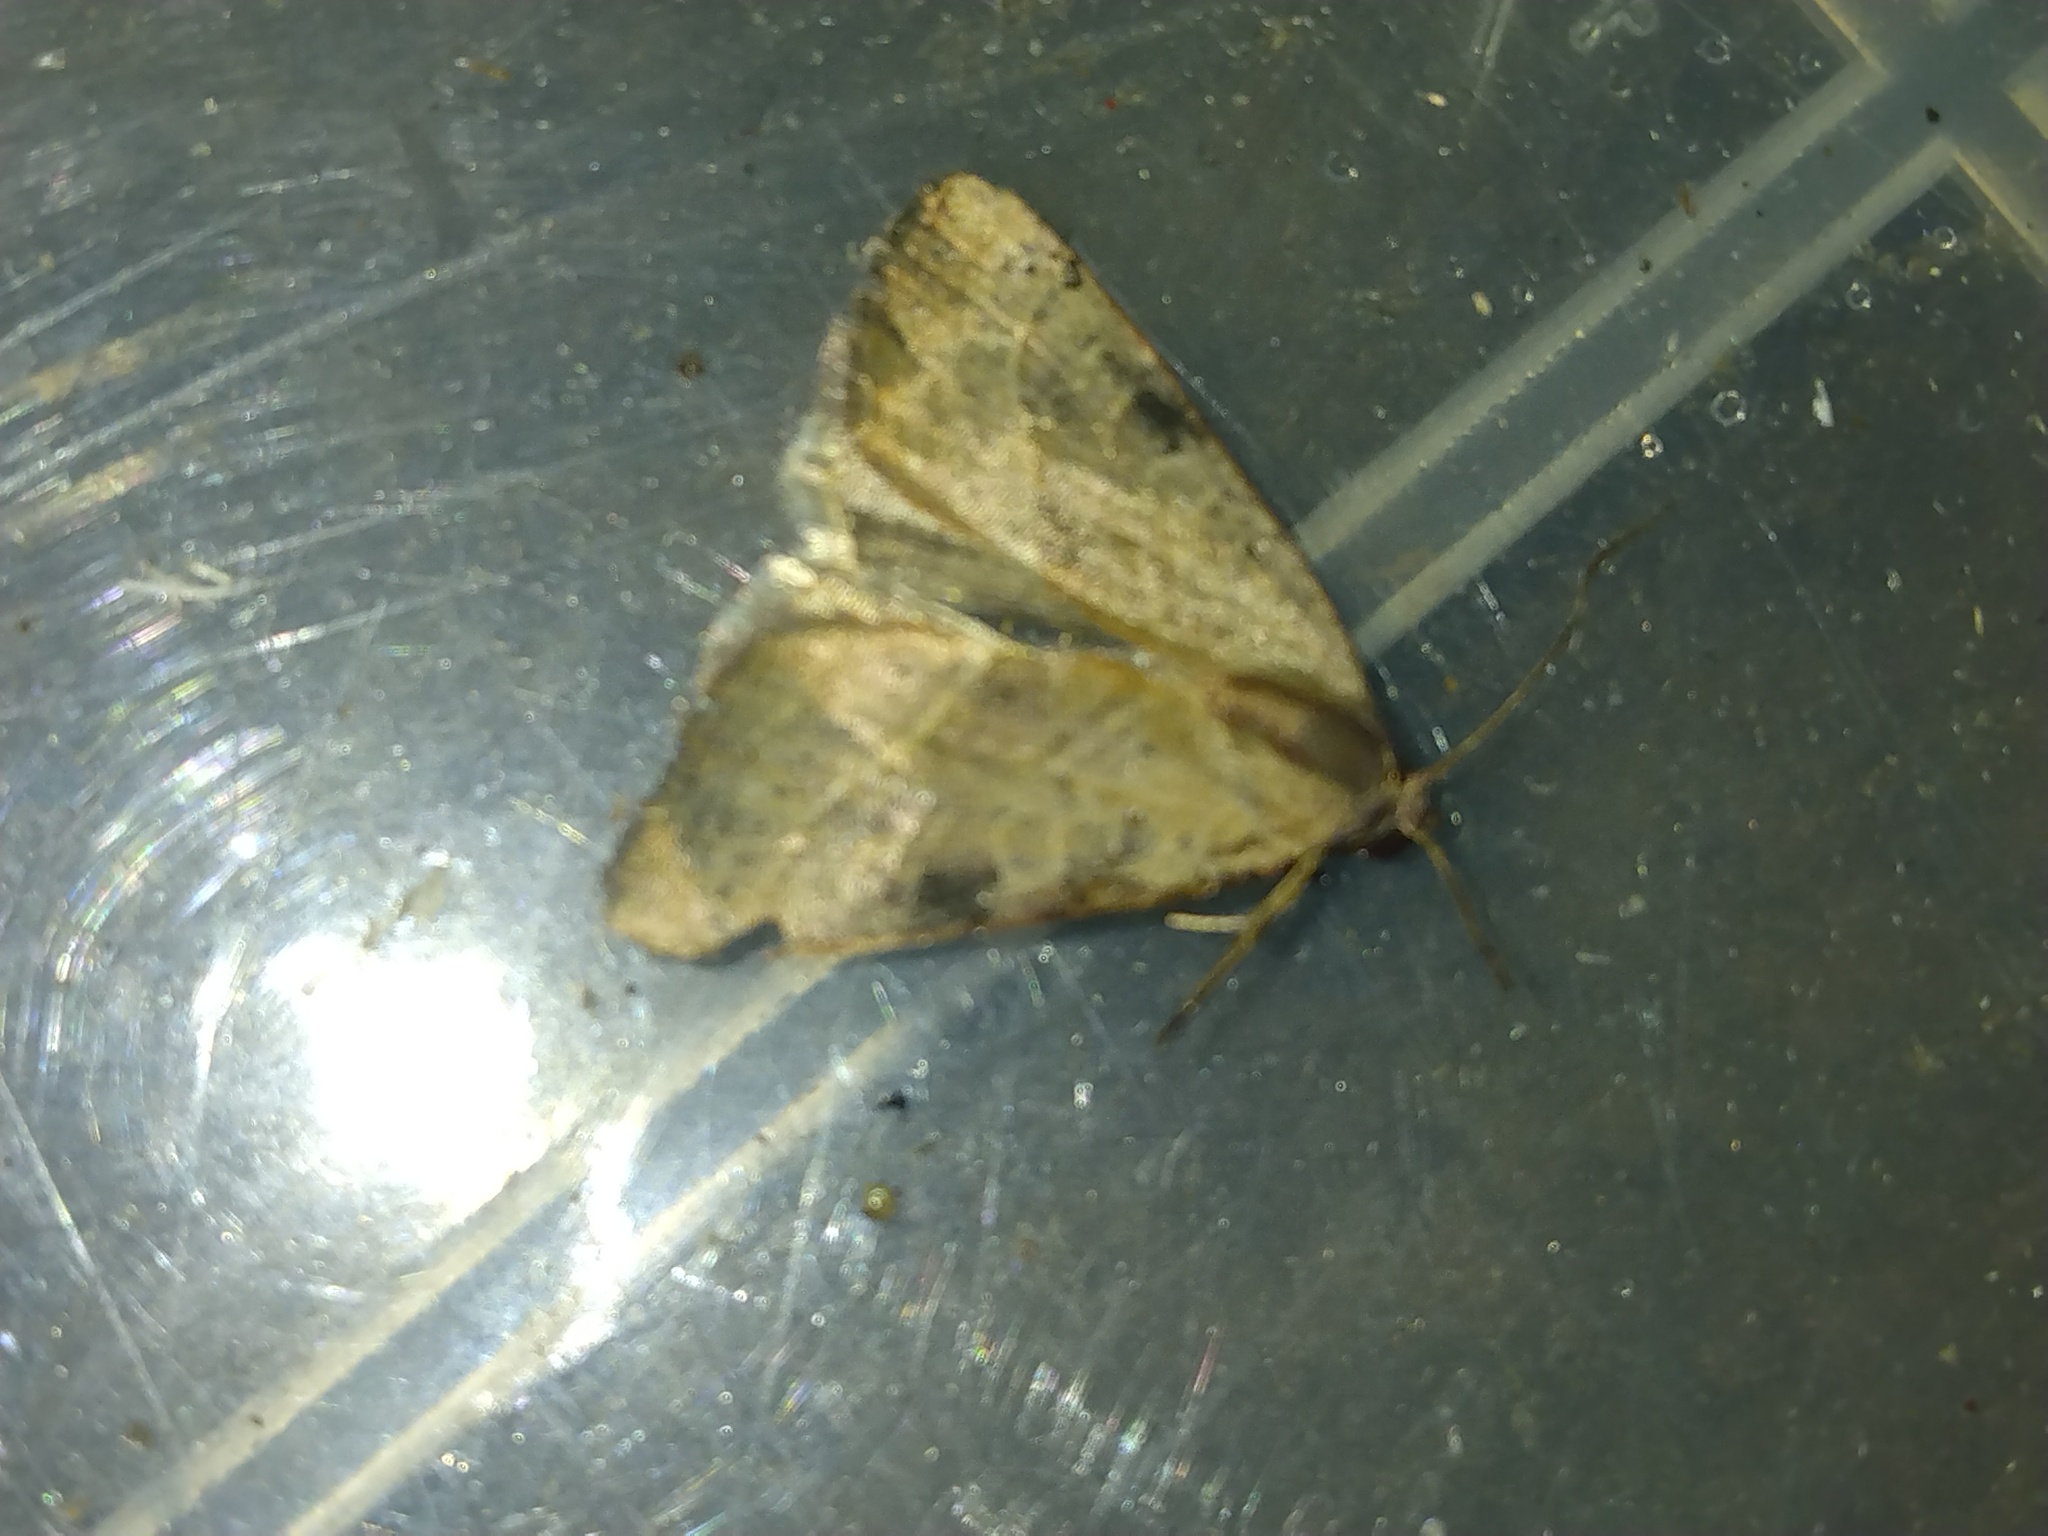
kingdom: Animalia
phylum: Arthropoda
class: Insecta
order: Lepidoptera
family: Noctuidae
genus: Galgula
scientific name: Galgula partita
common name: Wedgeling
